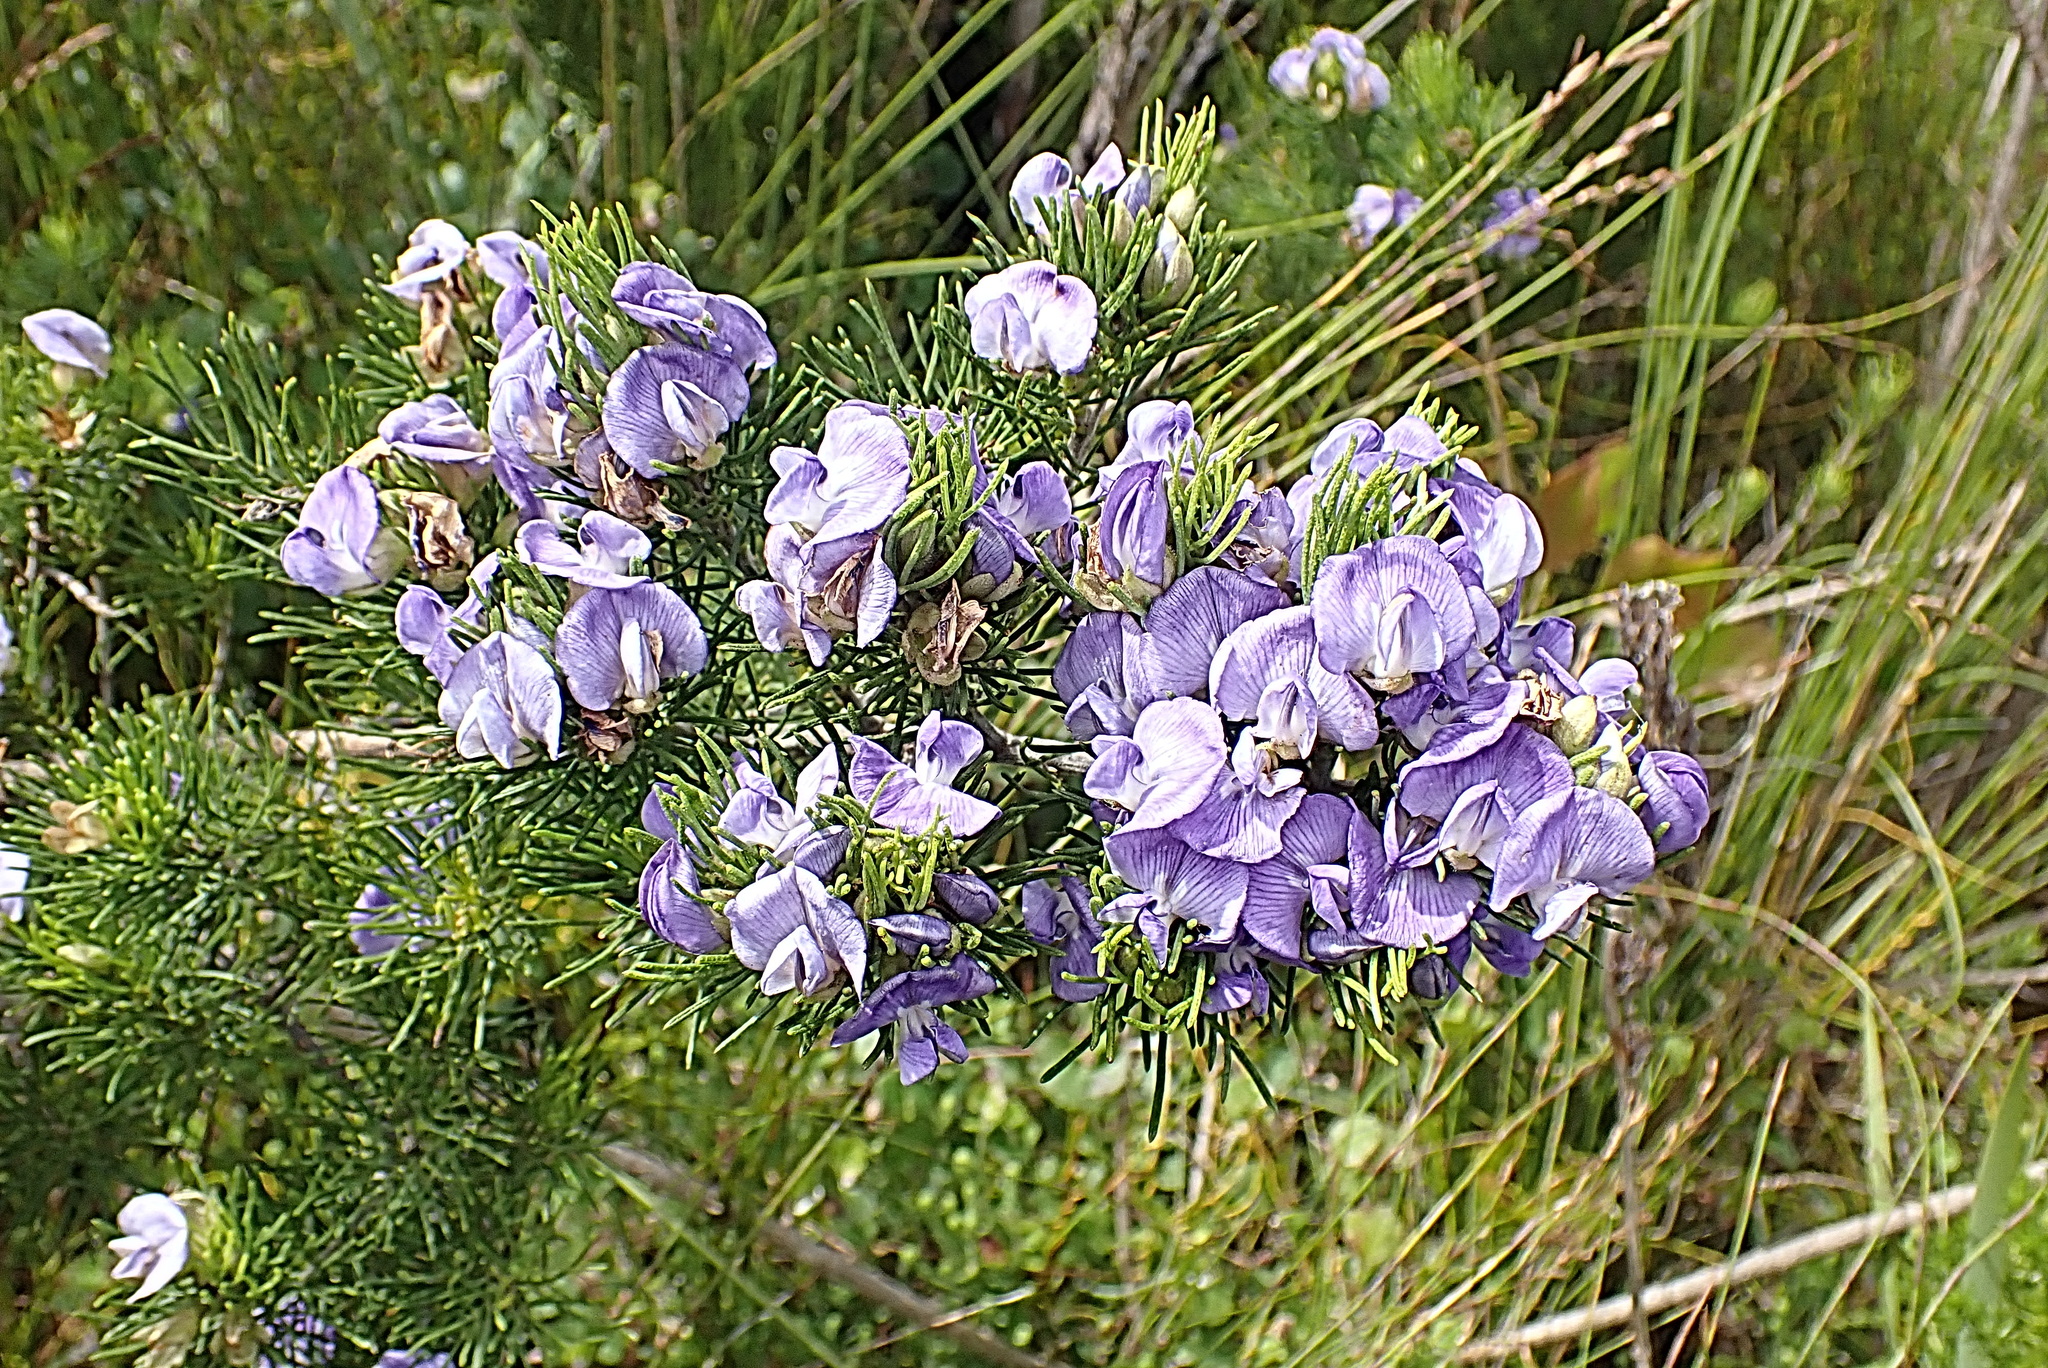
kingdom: Plantae
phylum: Tracheophyta
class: Magnoliopsida
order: Fabales
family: Fabaceae
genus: Psoralea
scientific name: Psoralea speciosa
